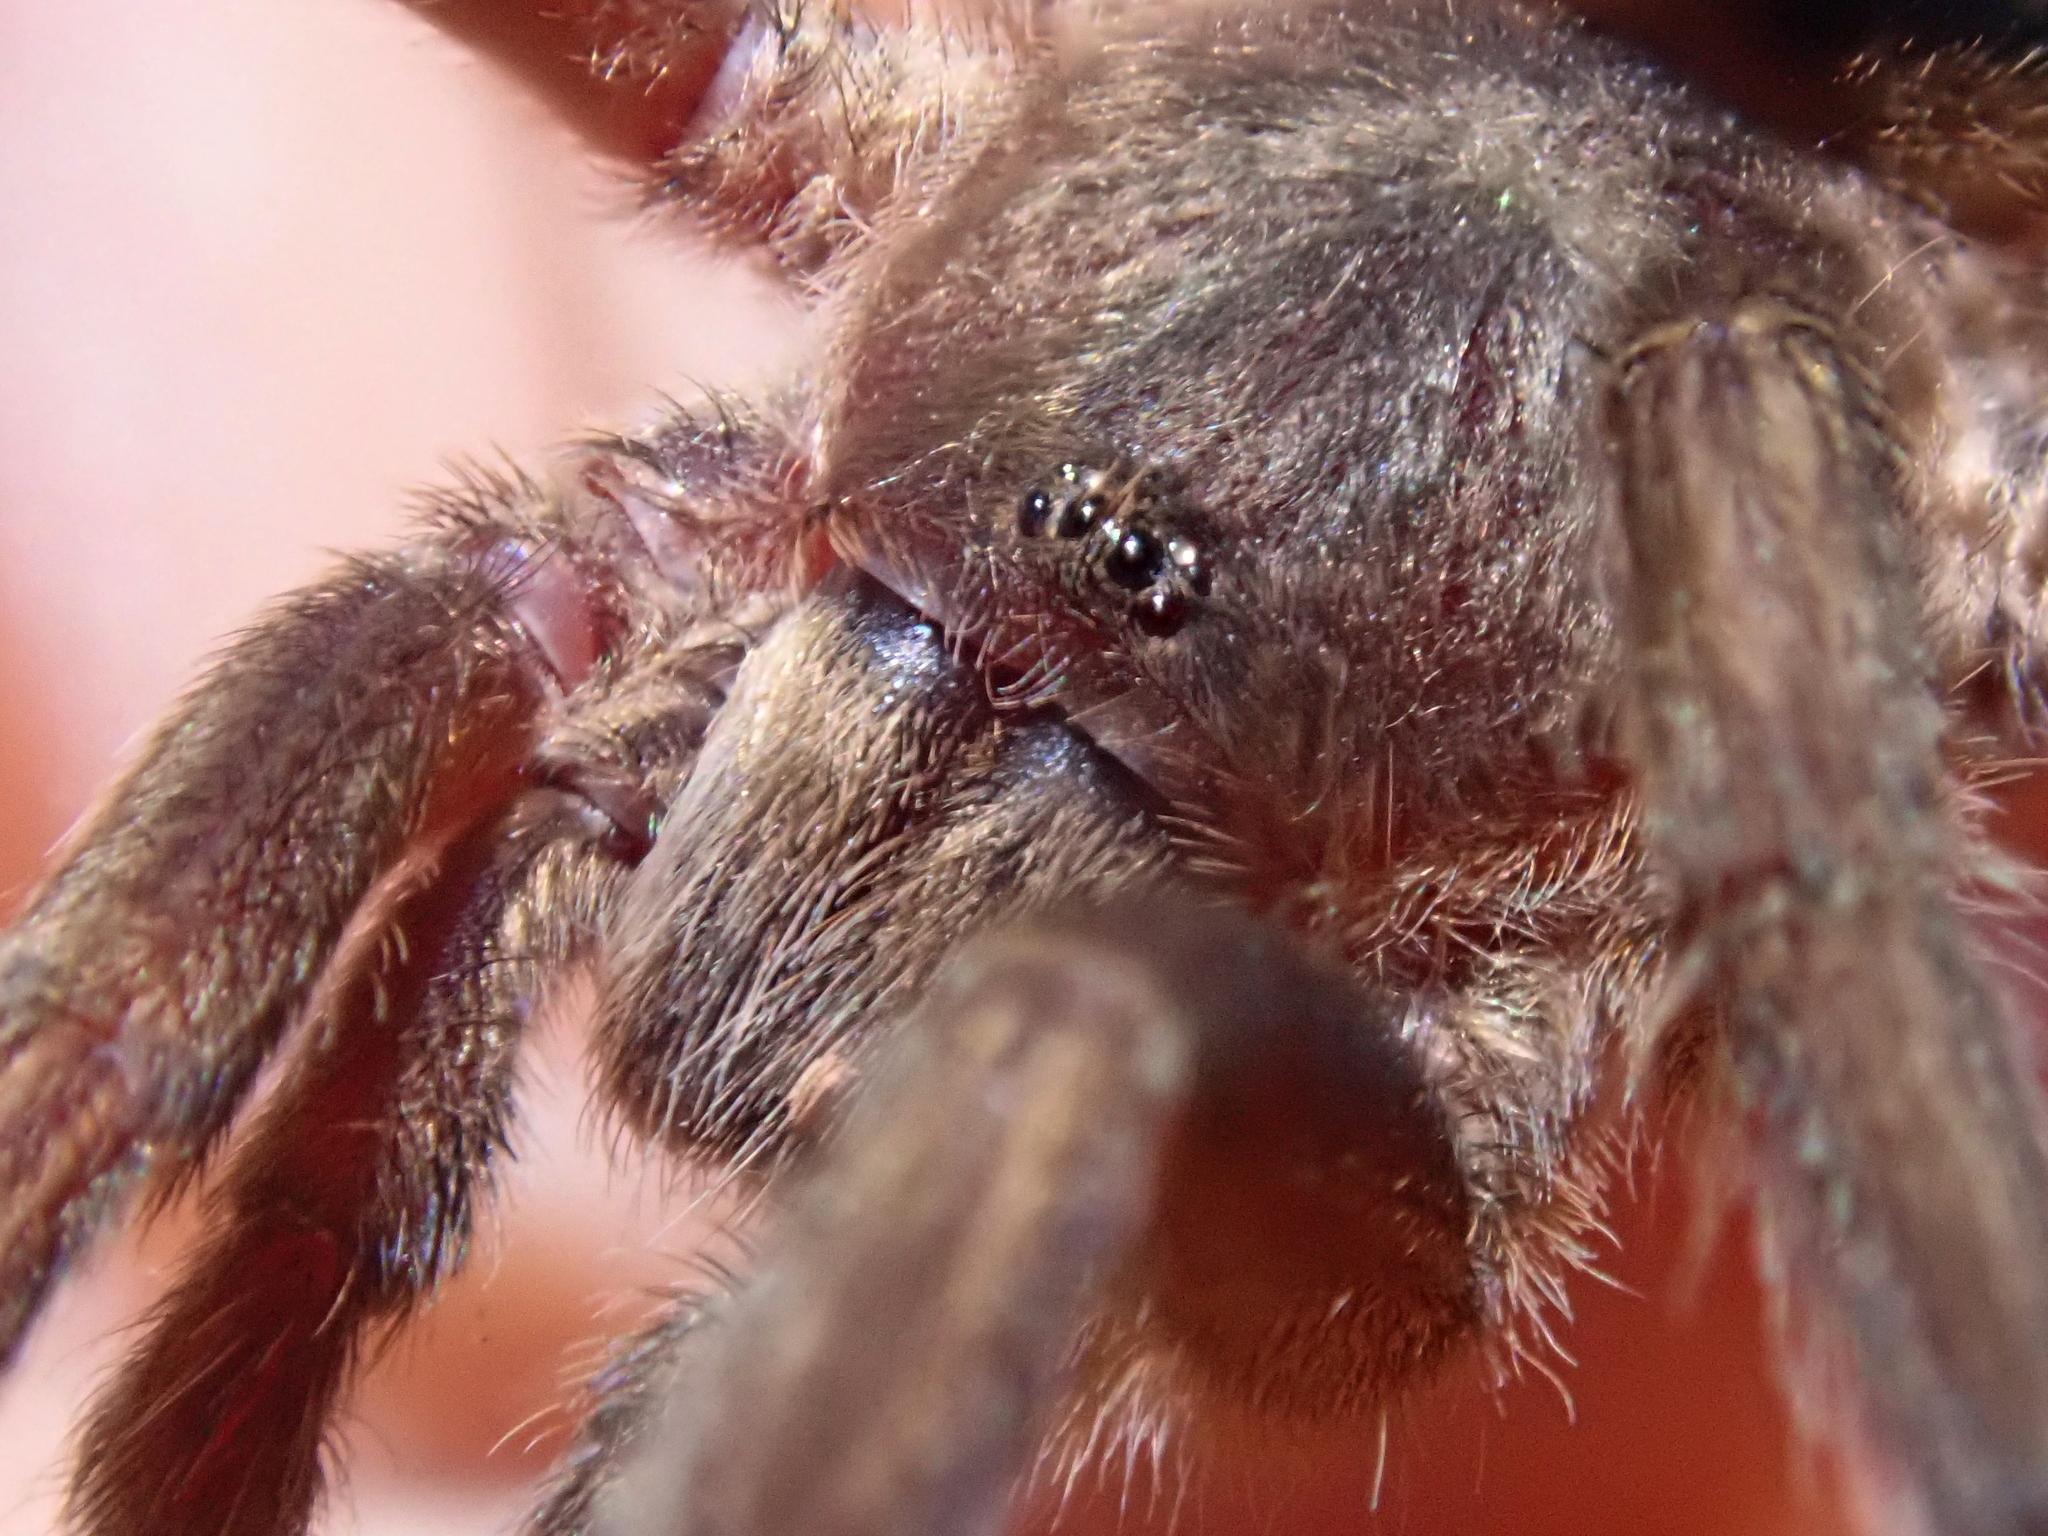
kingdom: Animalia
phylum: Arthropoda
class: Arachnida
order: Araneae
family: Theraphosidae
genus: Guyruita
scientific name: Guyruita cerrado
